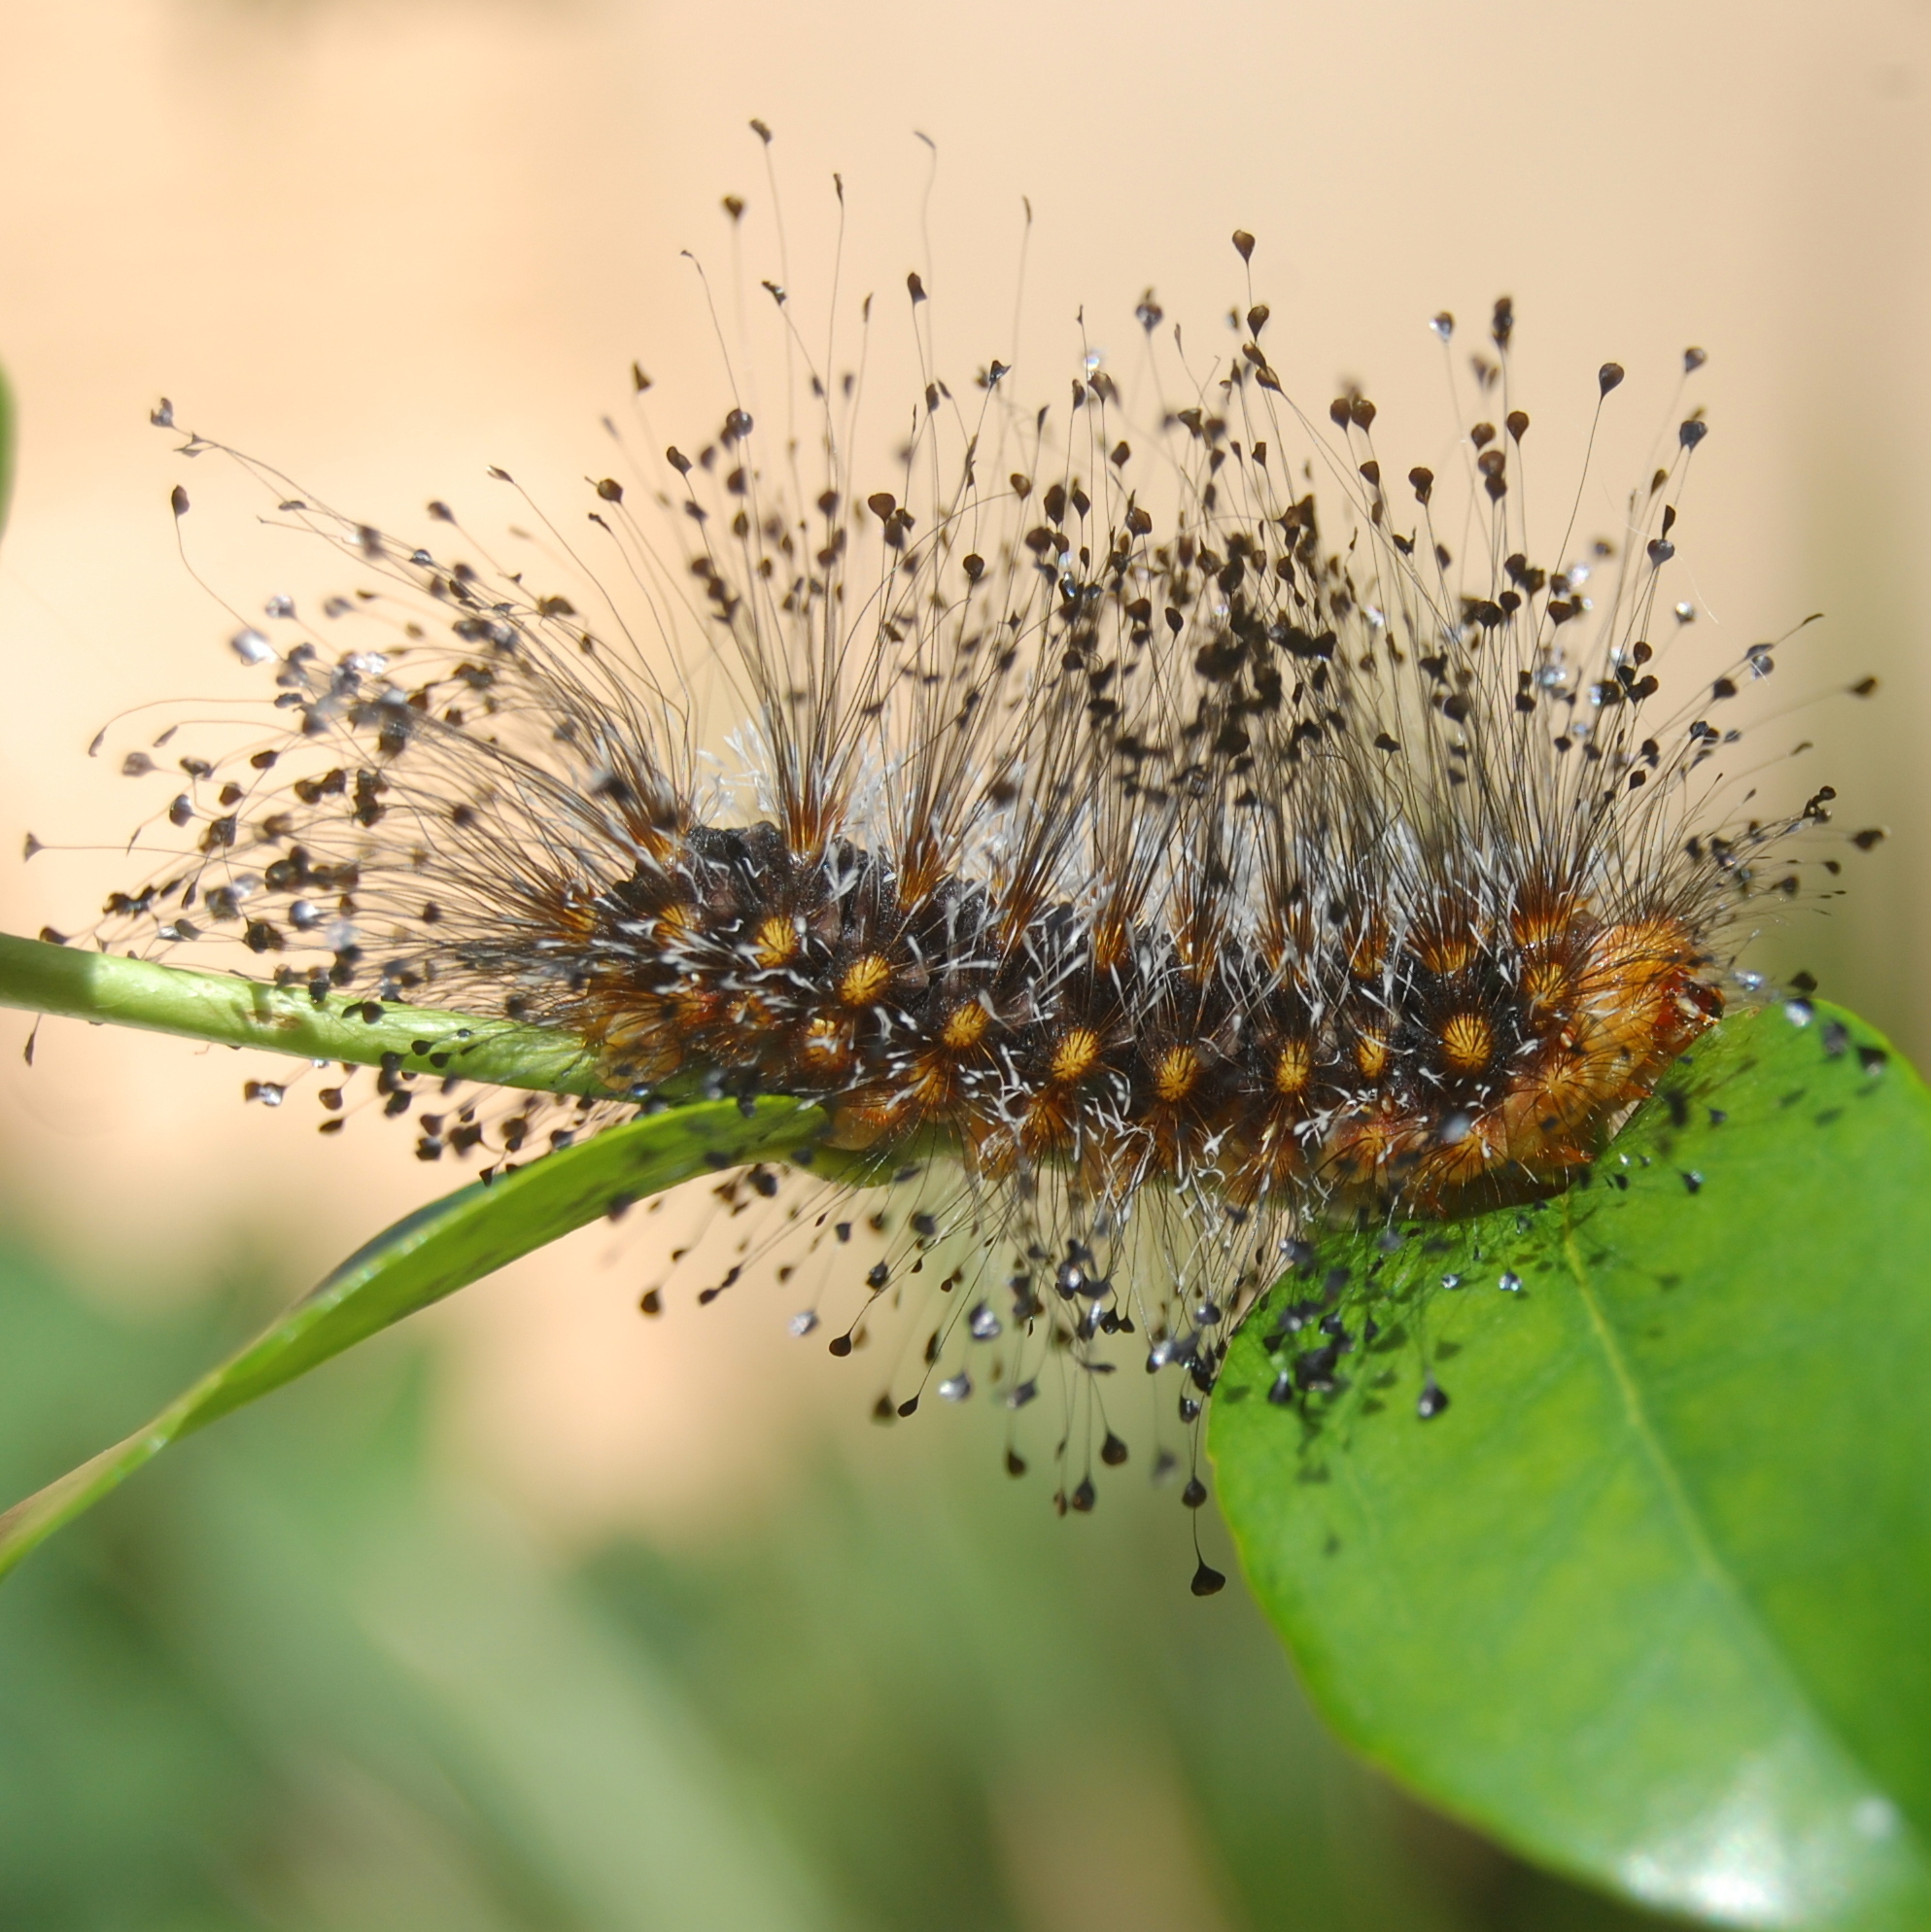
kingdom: Animalia
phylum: Arthropoda
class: Insecta
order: Lepidoptera
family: Megalopygidae
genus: Megalopyge
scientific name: Megalopyge urens
